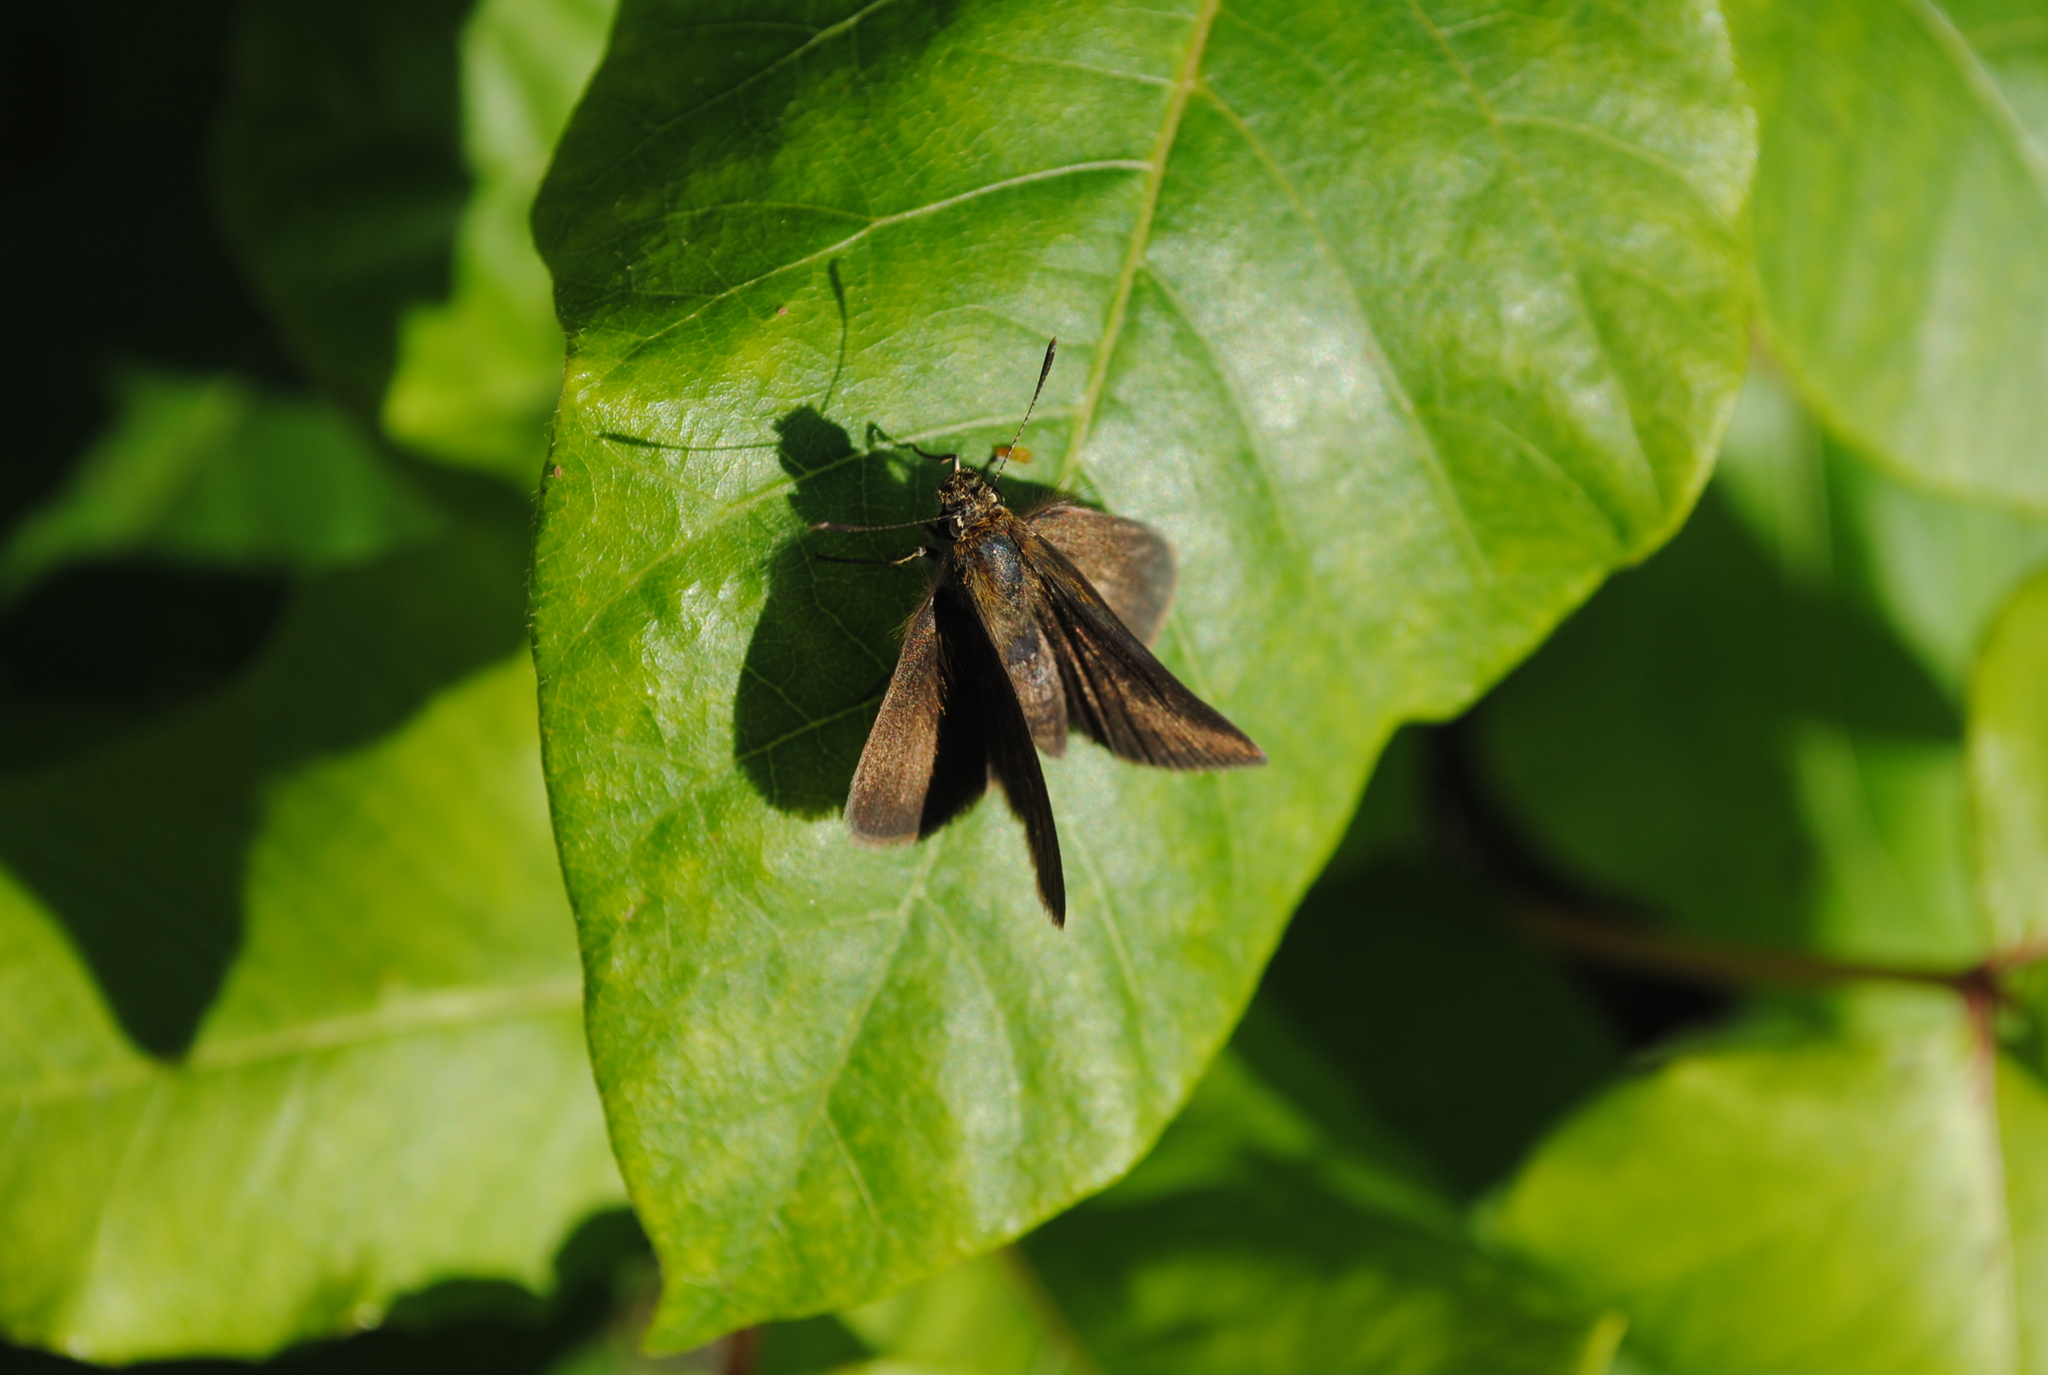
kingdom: Animalia
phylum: Arthropoda
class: Insecta
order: Lepidoptera
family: Hesperiidae
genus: Euphyes
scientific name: Euphyes vestris
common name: Dun skipper
